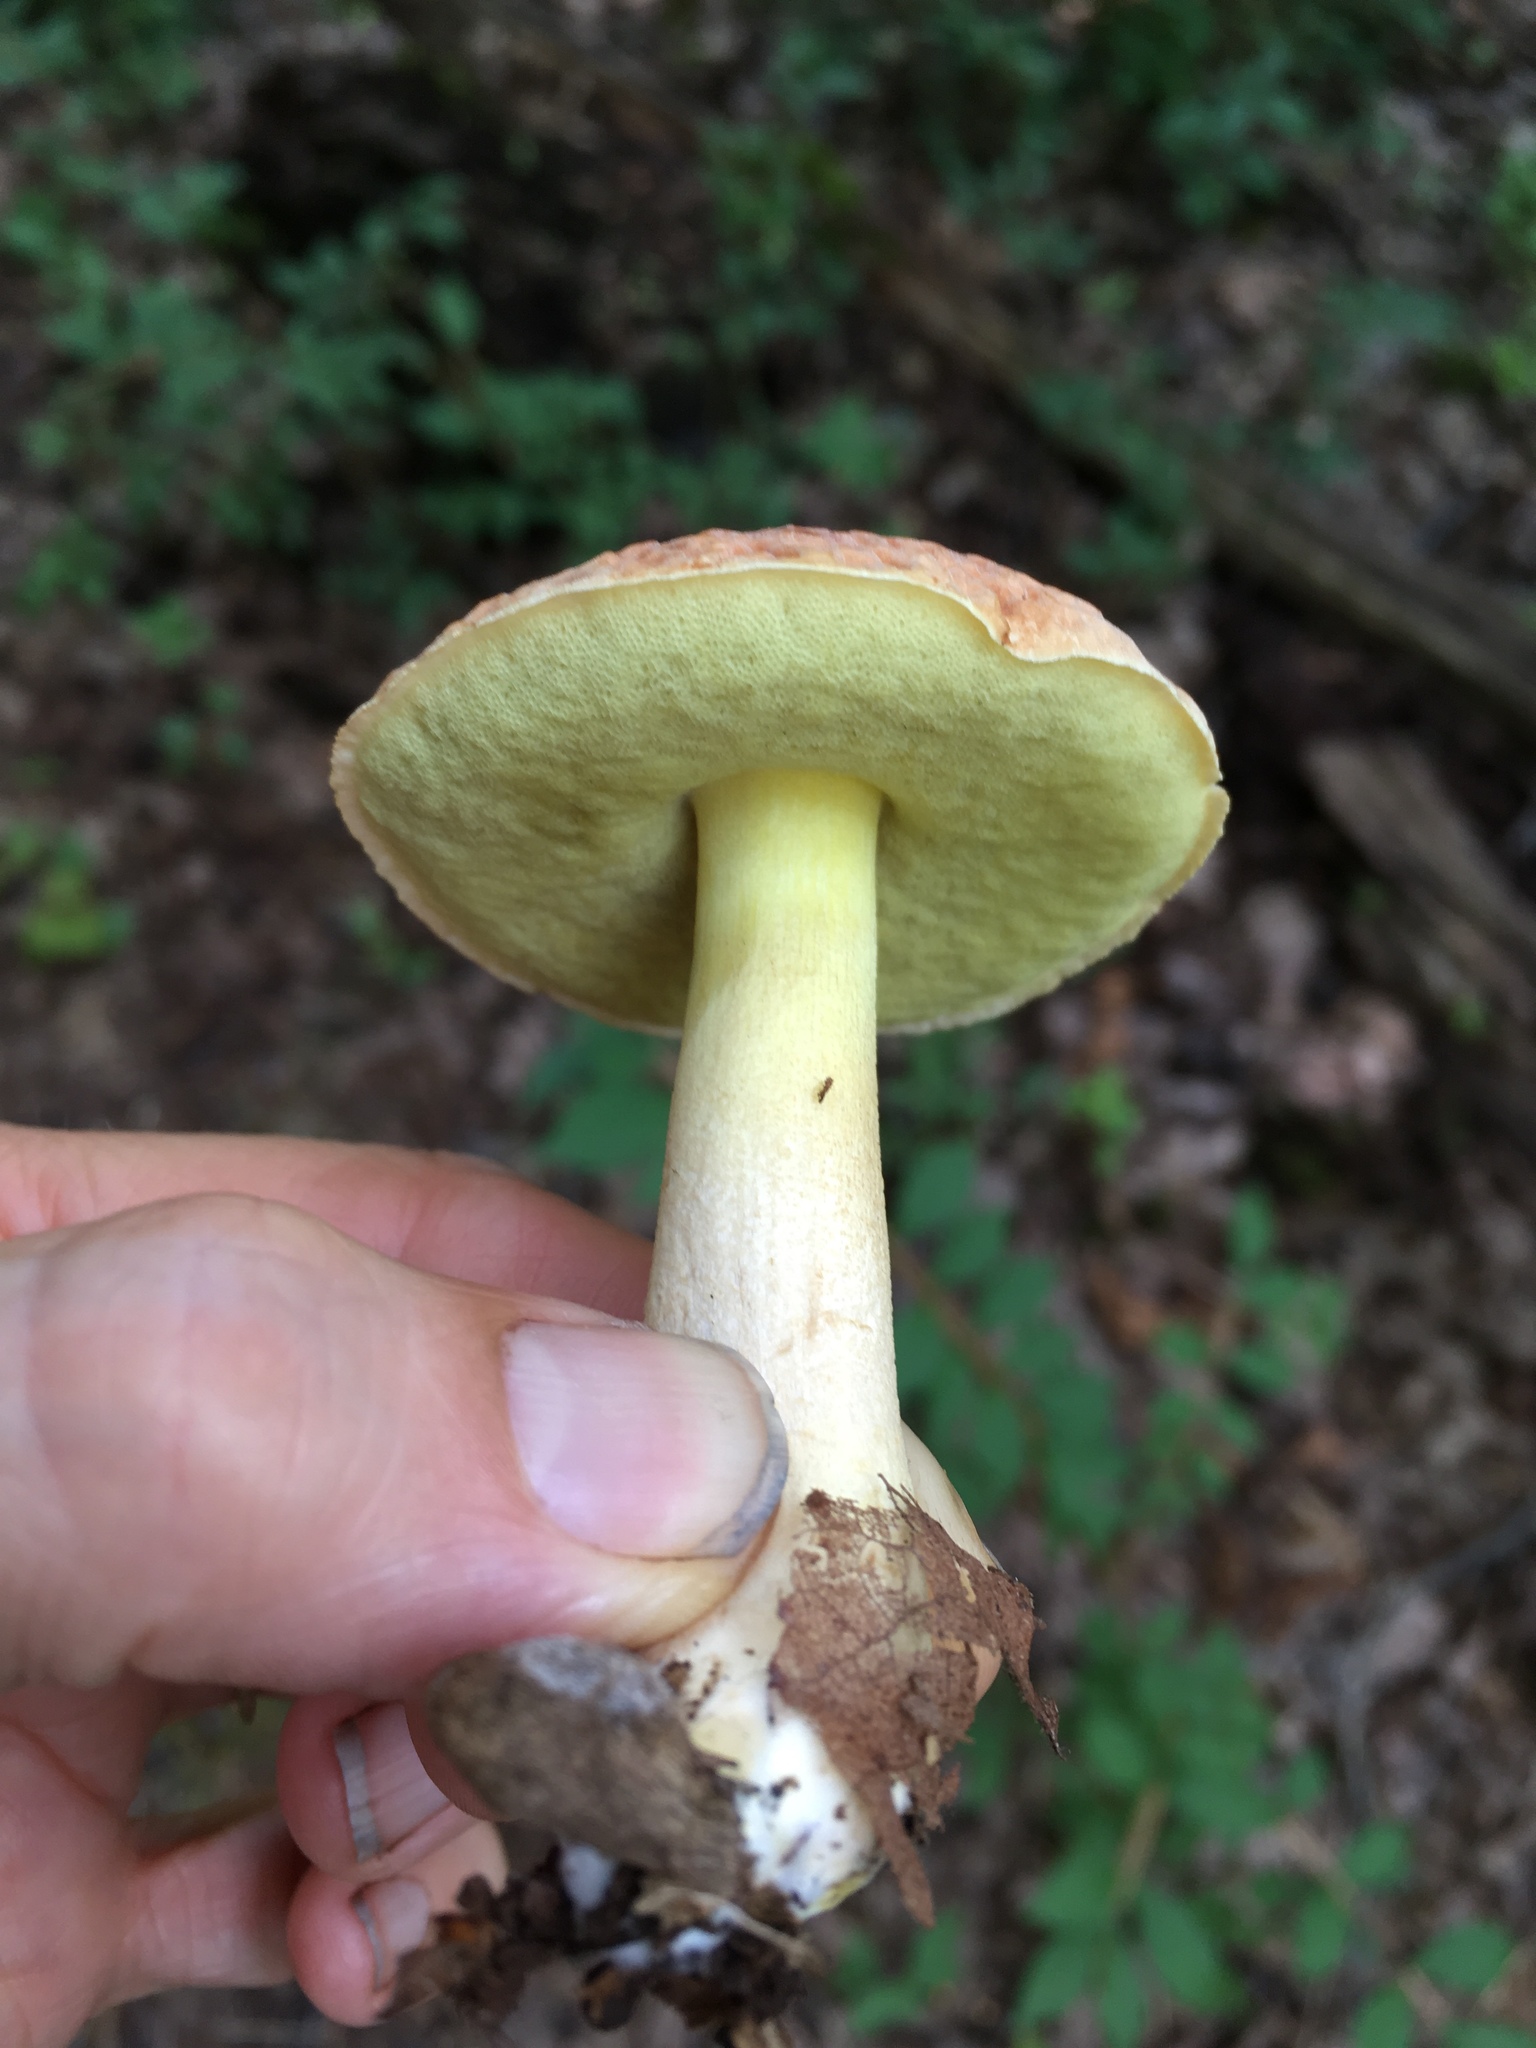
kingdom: Fungi
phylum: Basidiomycota
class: Agaricomycetes
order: Boletales
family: Boletaceae
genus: Hemileccinum
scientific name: Hemileccinum subglabripes
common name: Smoothish-stemmed bolete
